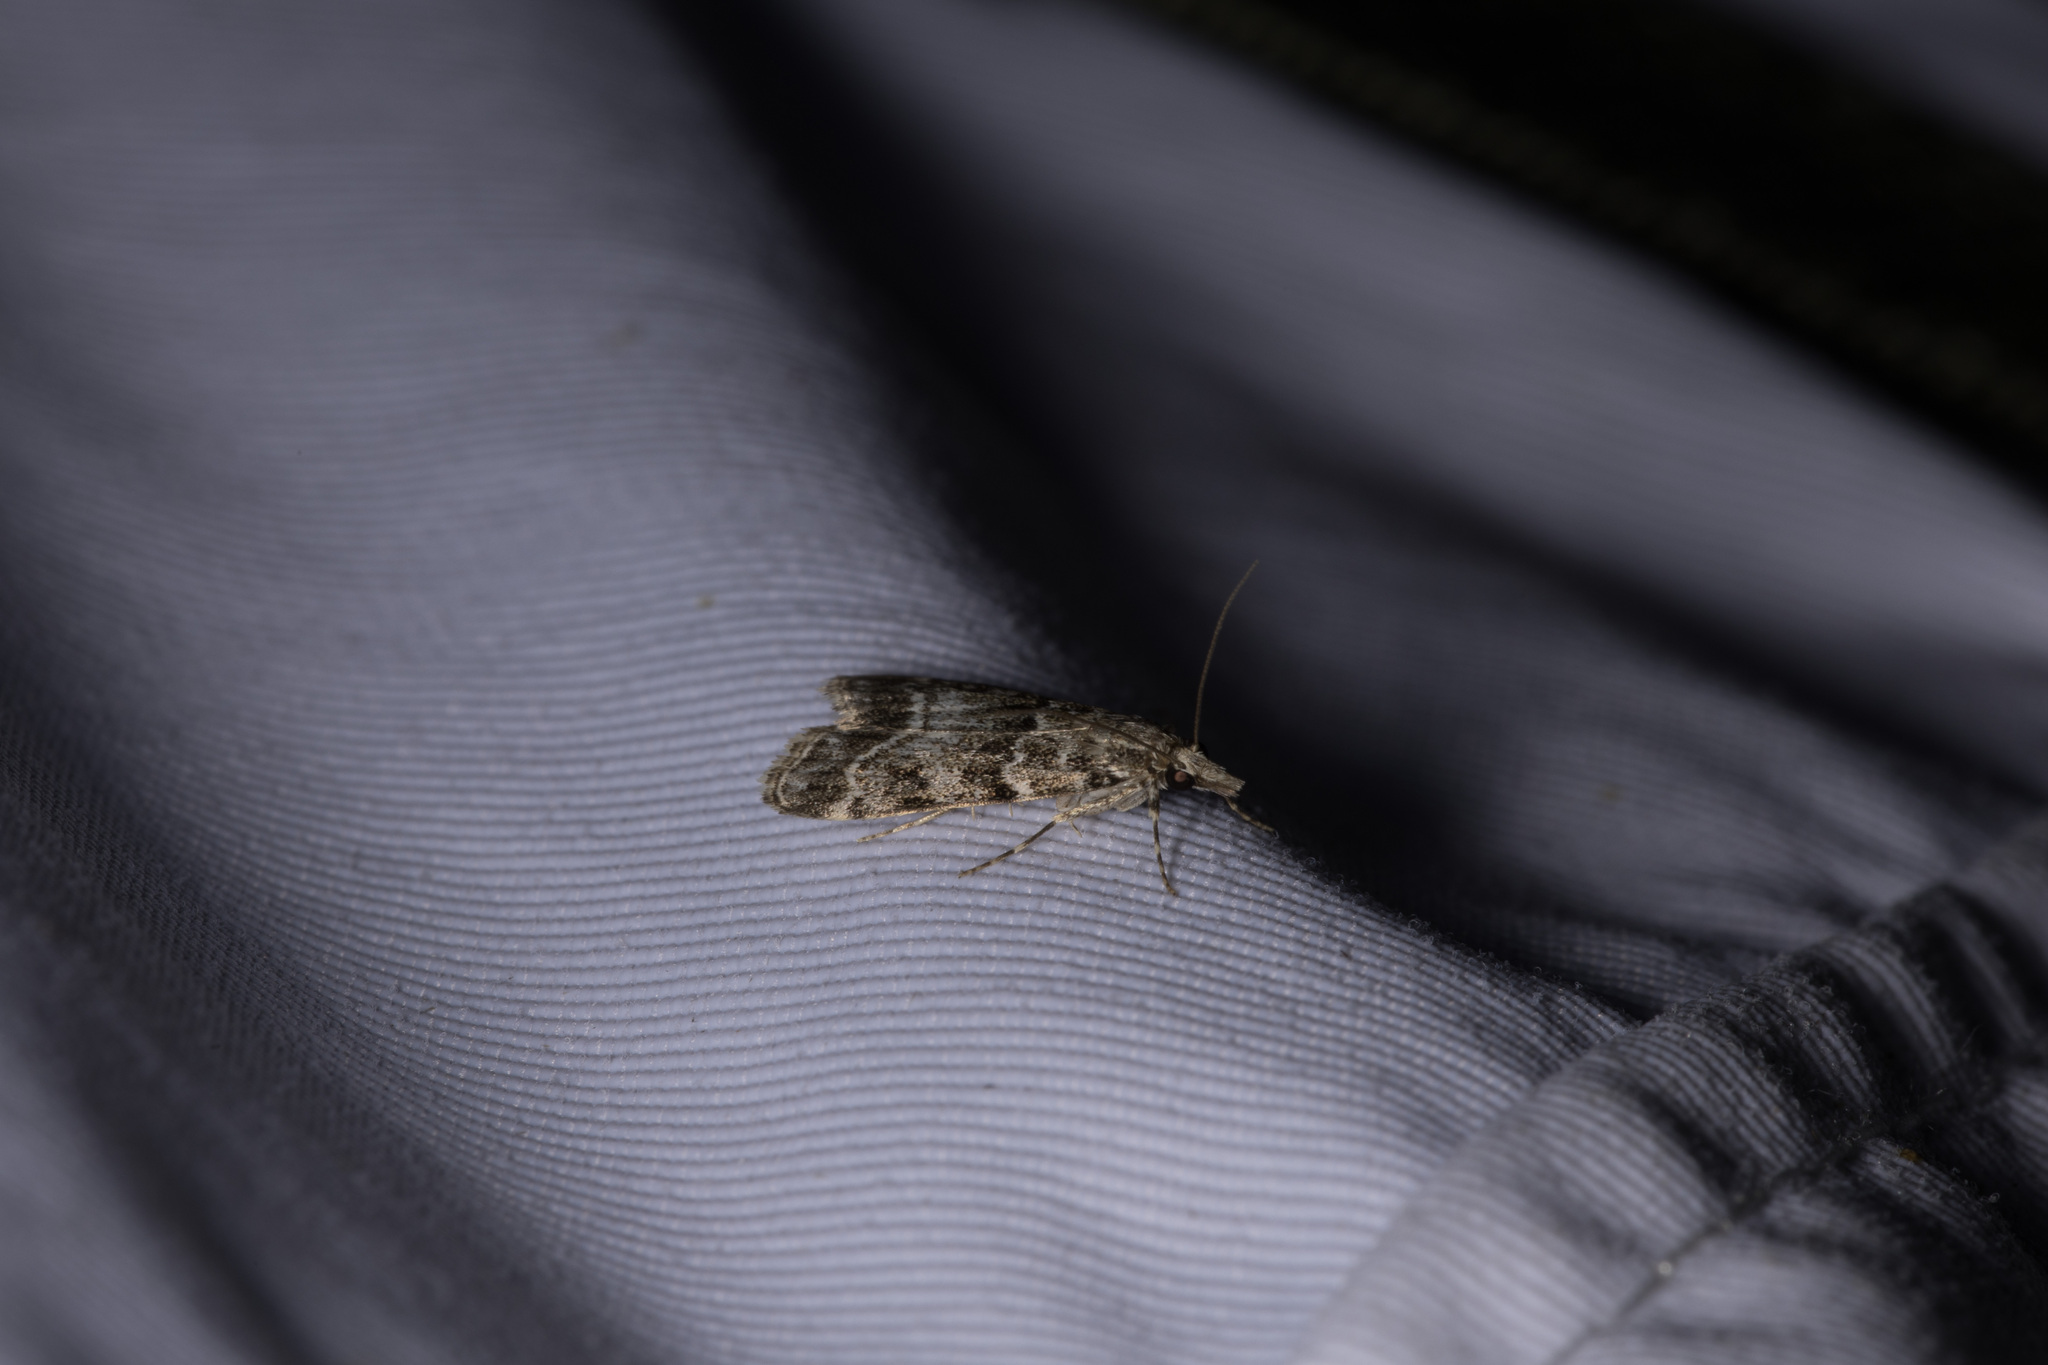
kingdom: Animalia
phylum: Arthropoda
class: Insecta
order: Lepidoptera
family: Crambidae
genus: Eudonia
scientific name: Eudonia mercurella
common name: Small grey
